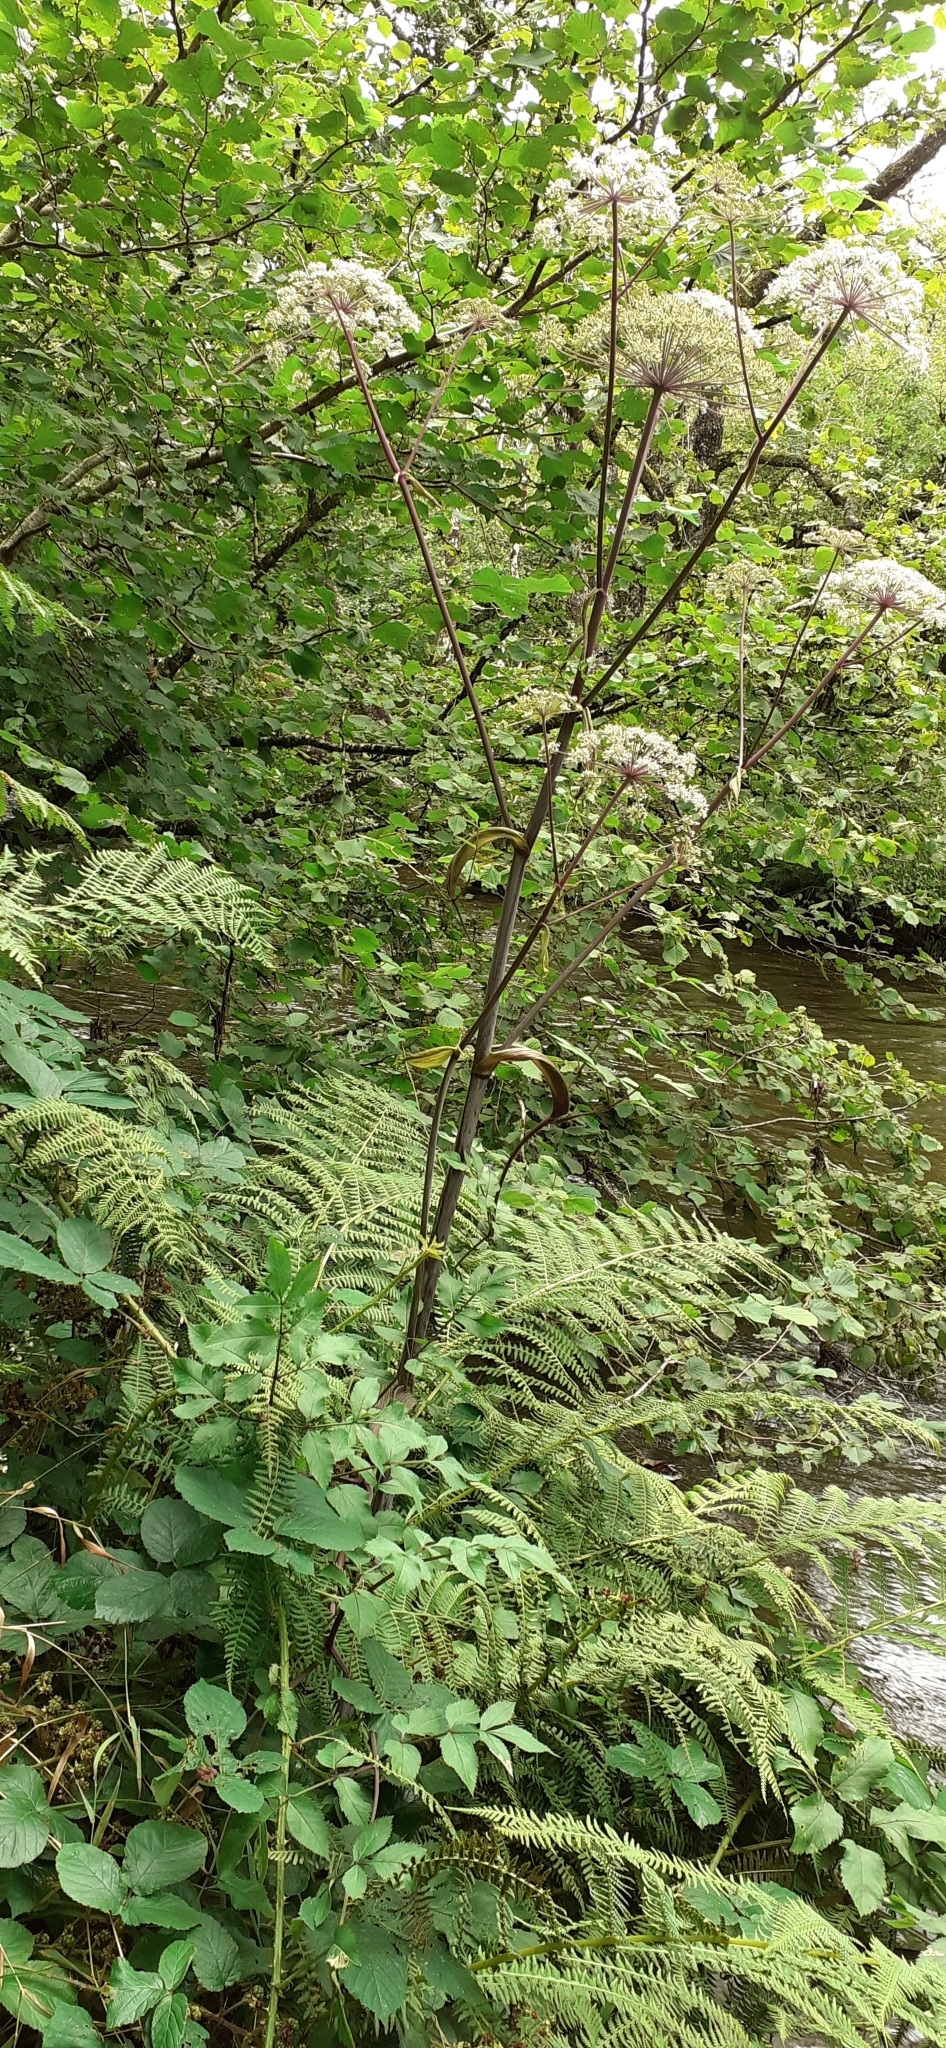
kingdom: Plantae
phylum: Tracheophyta
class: Magnoliopsida
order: Apiales
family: Apiaceae
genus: Angelica
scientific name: Angelica sylvestris
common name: Wild angelica
